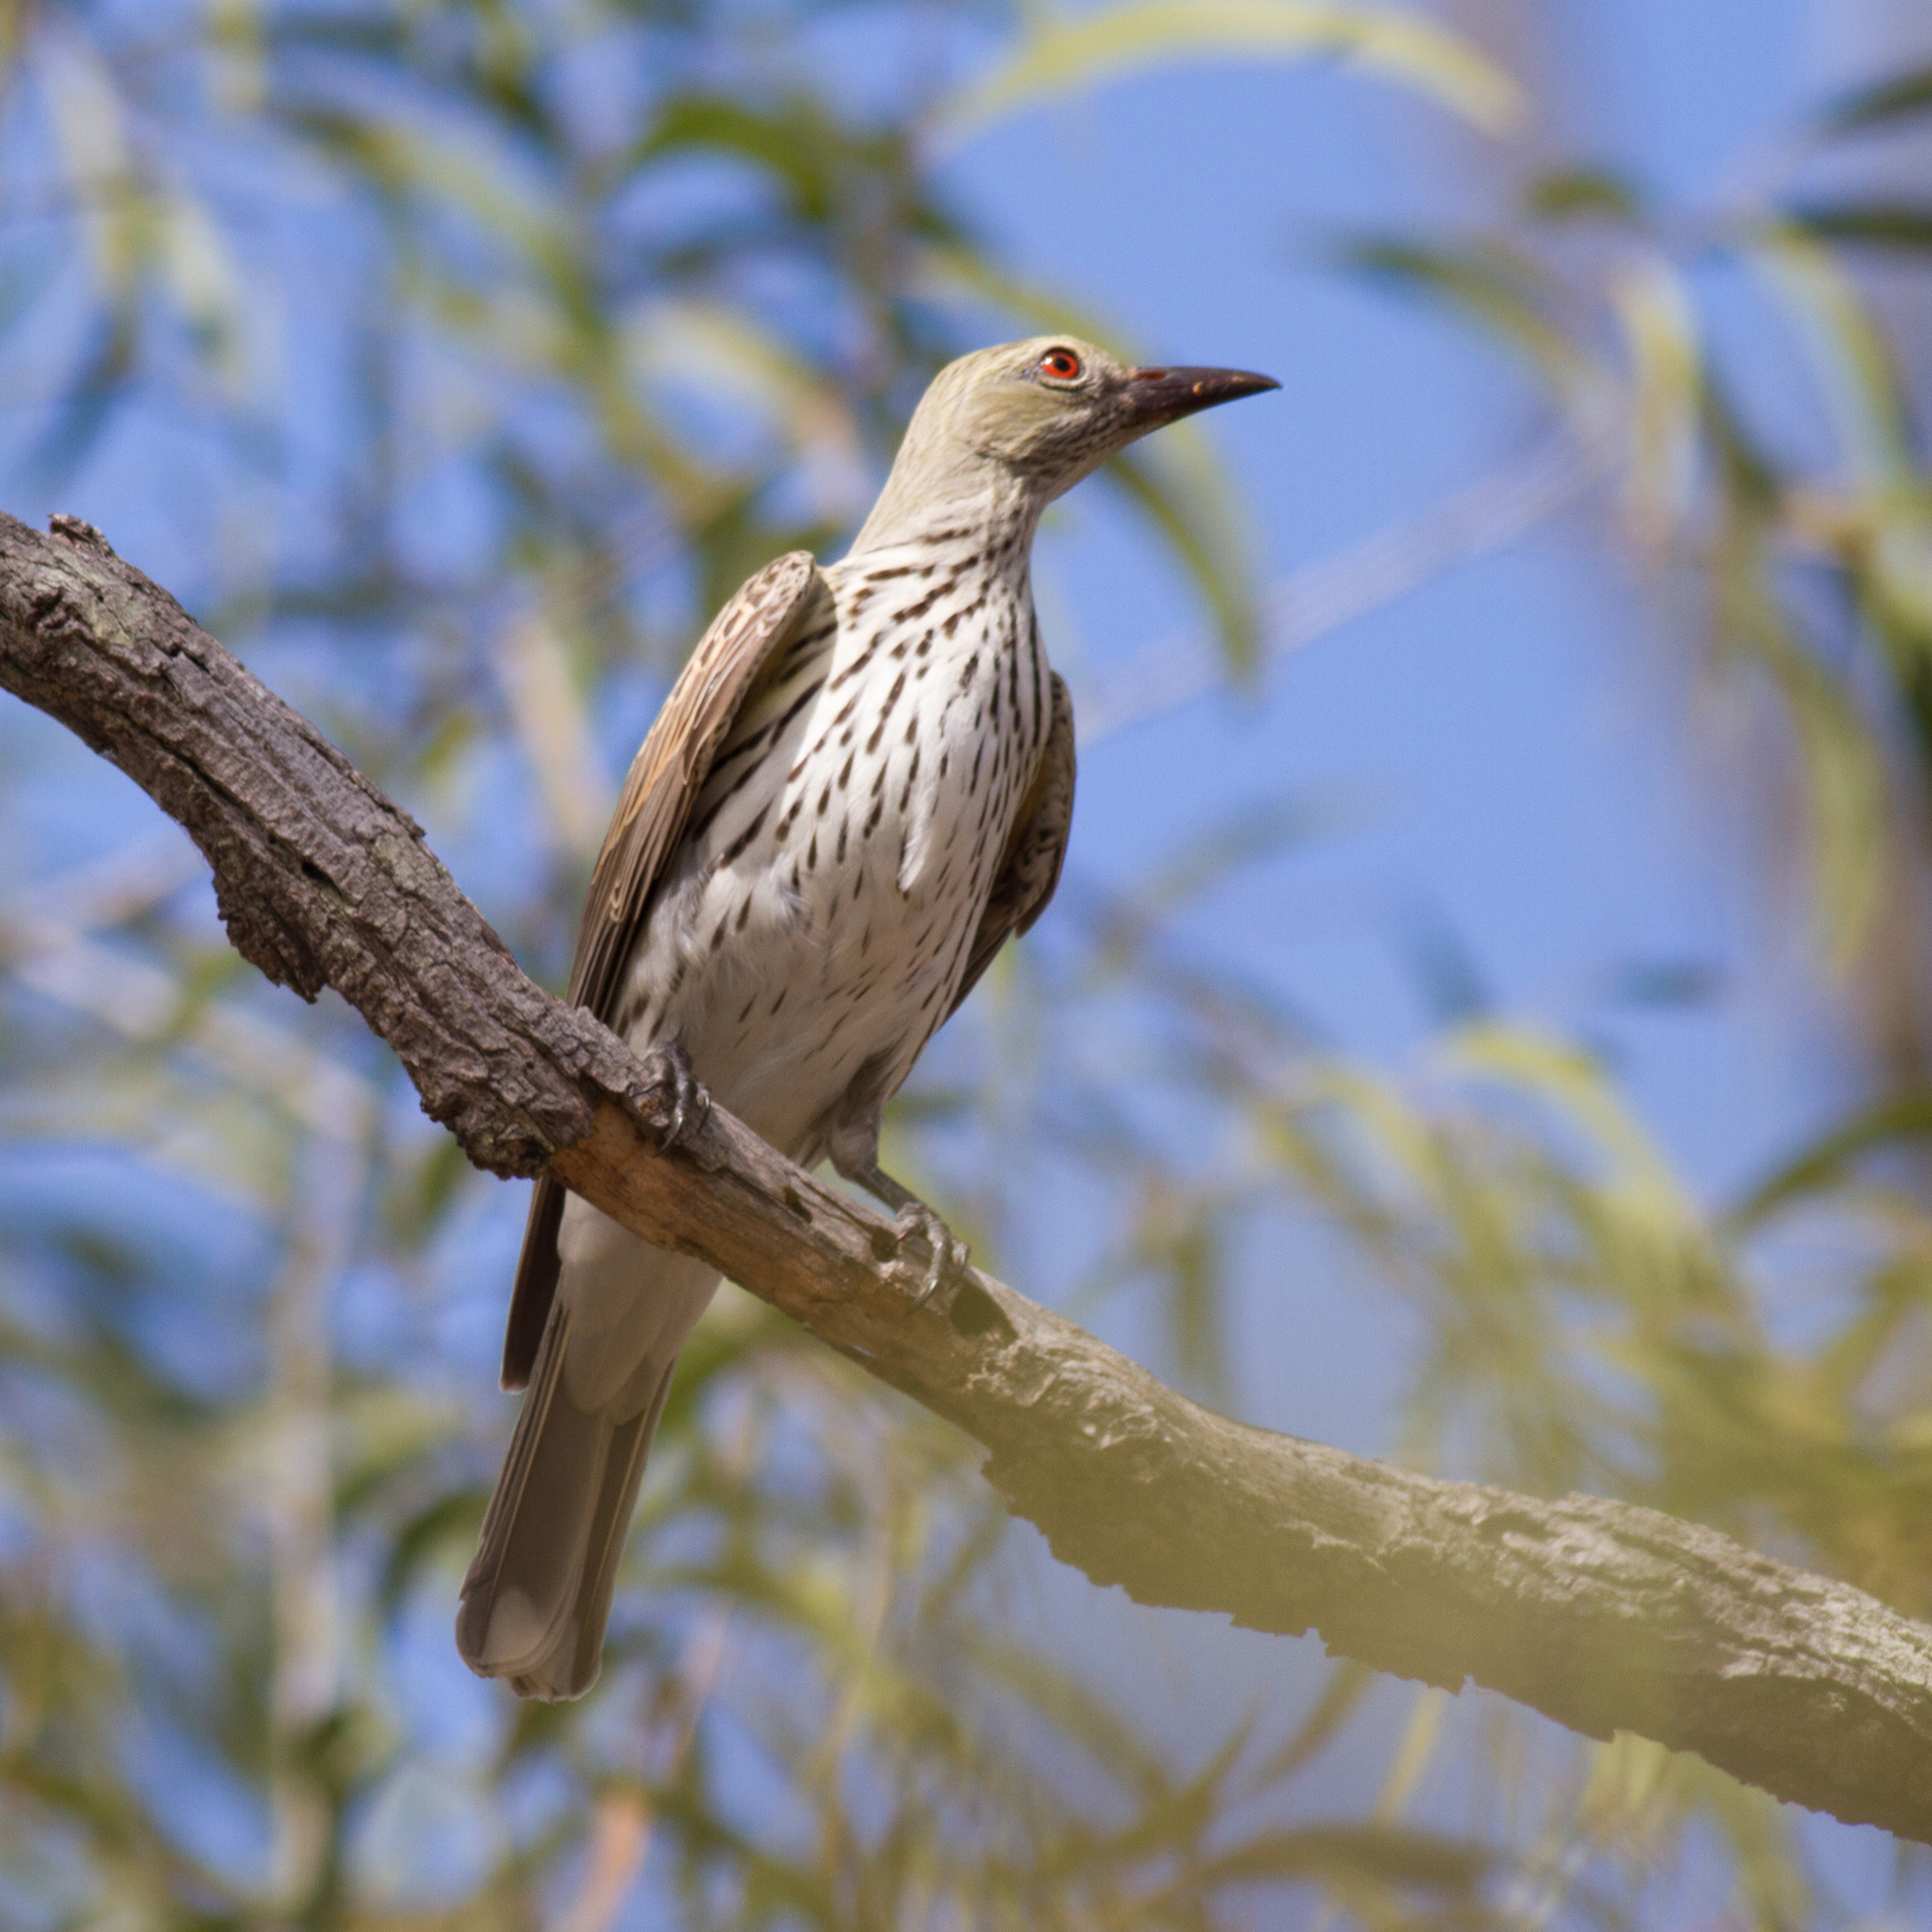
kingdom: Animalia
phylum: Chordata
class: Aves
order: Passeriformes
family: Oriolidae
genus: Oriolus
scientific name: Oriolus sagittatus
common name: Olive-backed oriole
